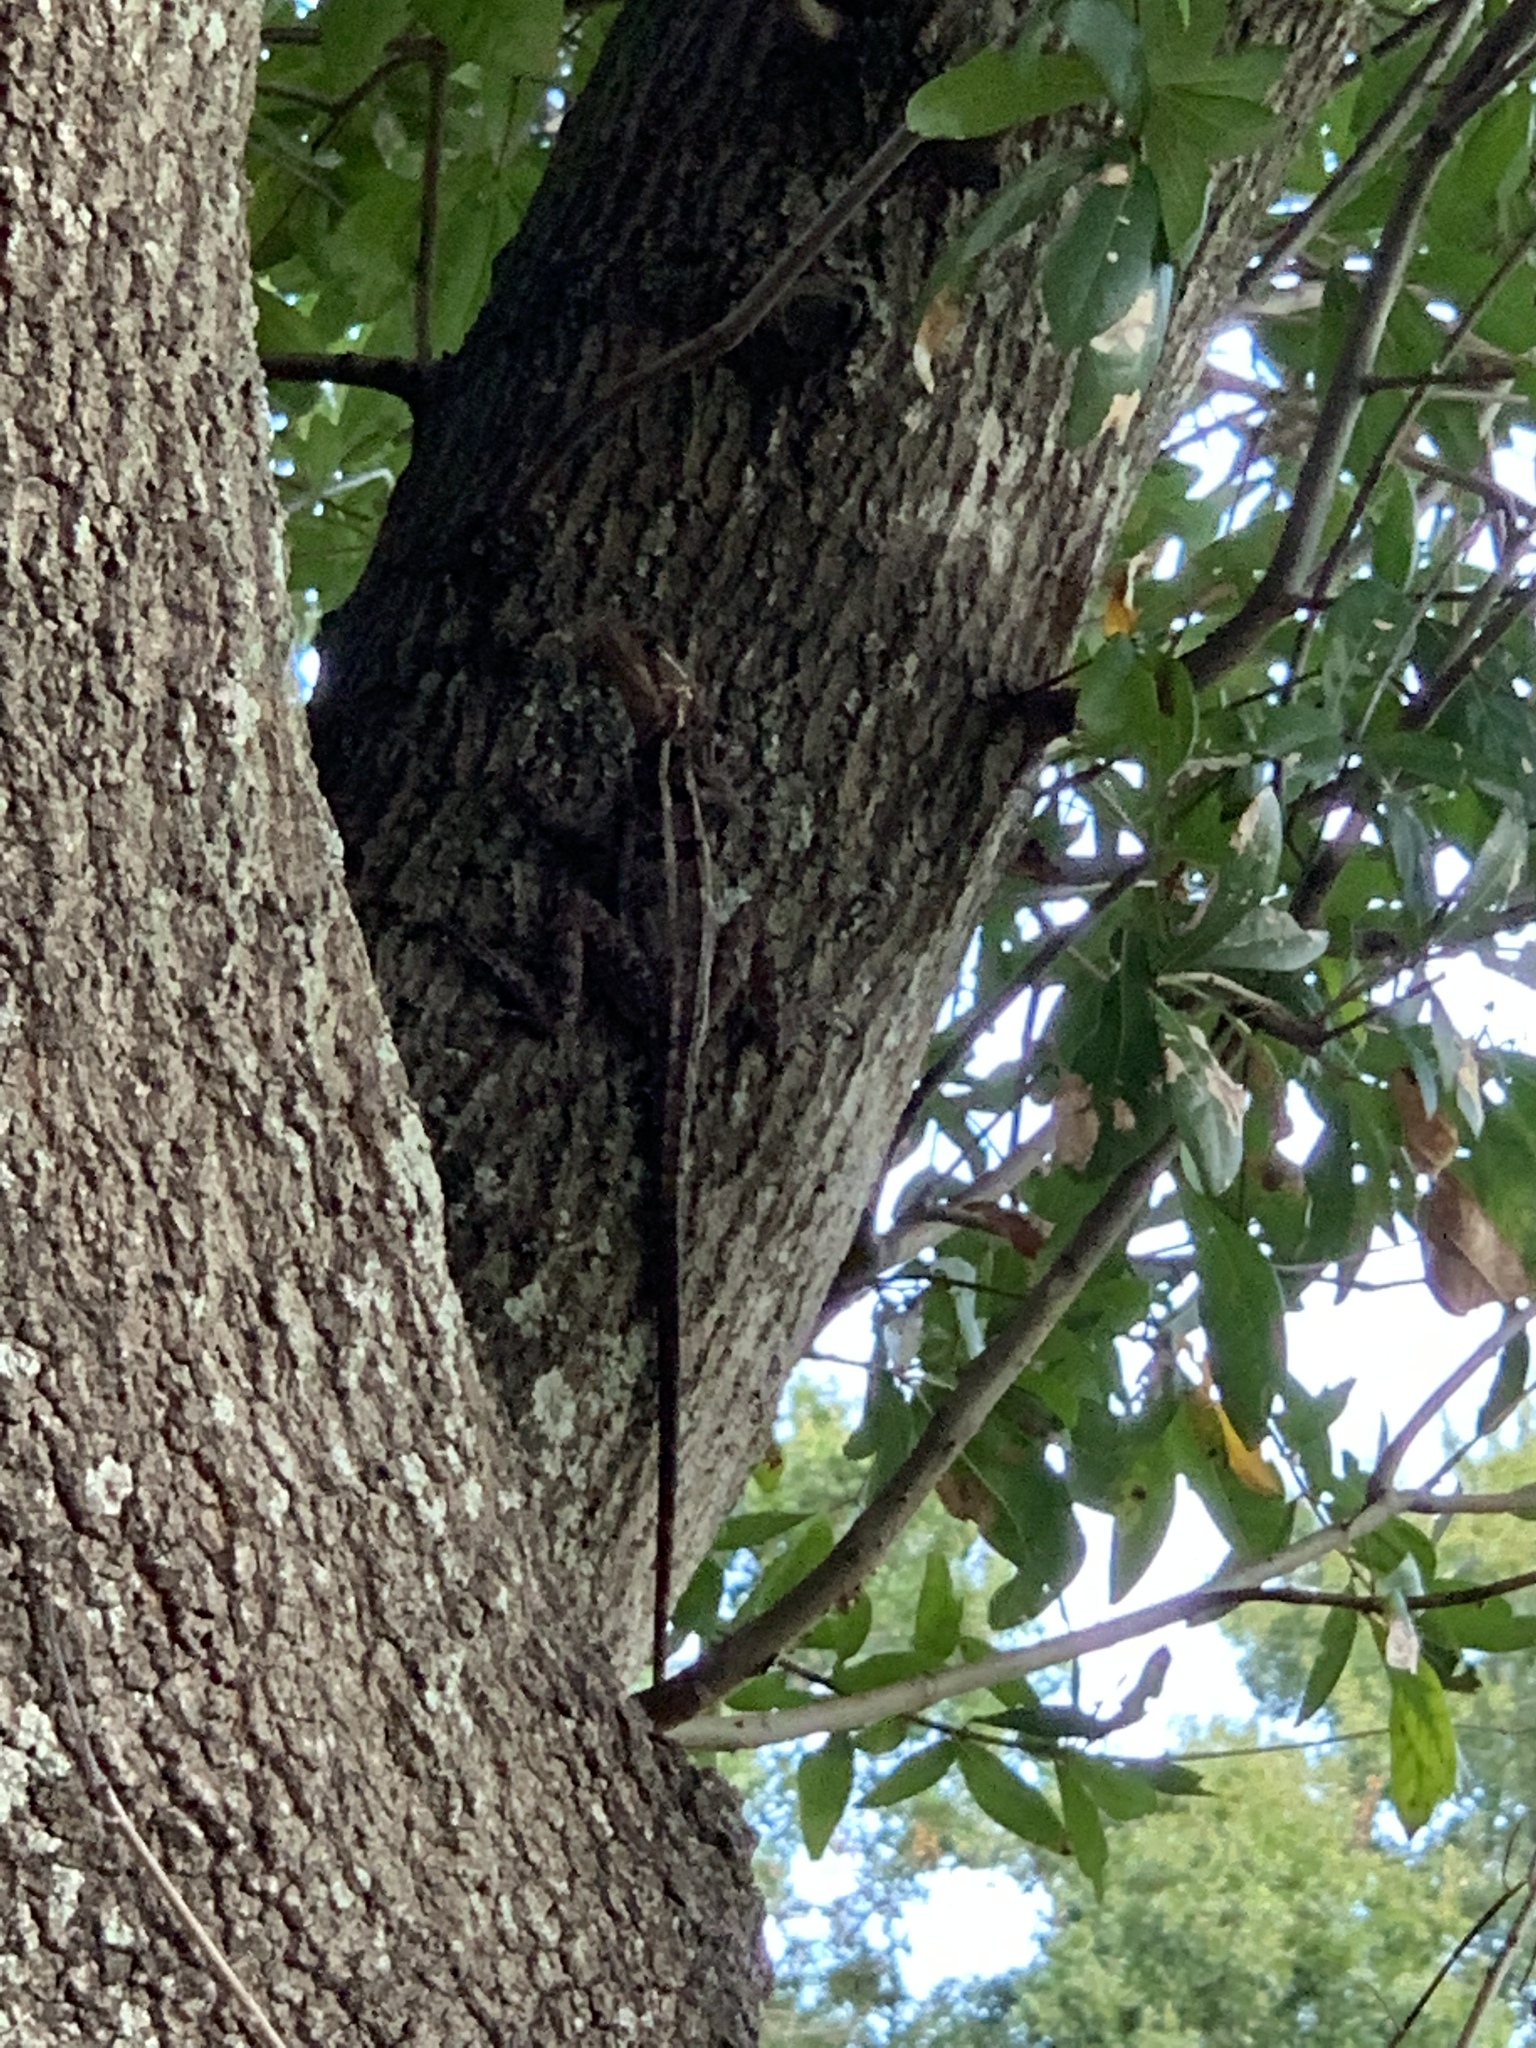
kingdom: Animalia
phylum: Chordata
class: Squamata
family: Corytophanidae
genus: Basiliscus
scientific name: Basiliscus vittatus
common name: Brown basilisk
